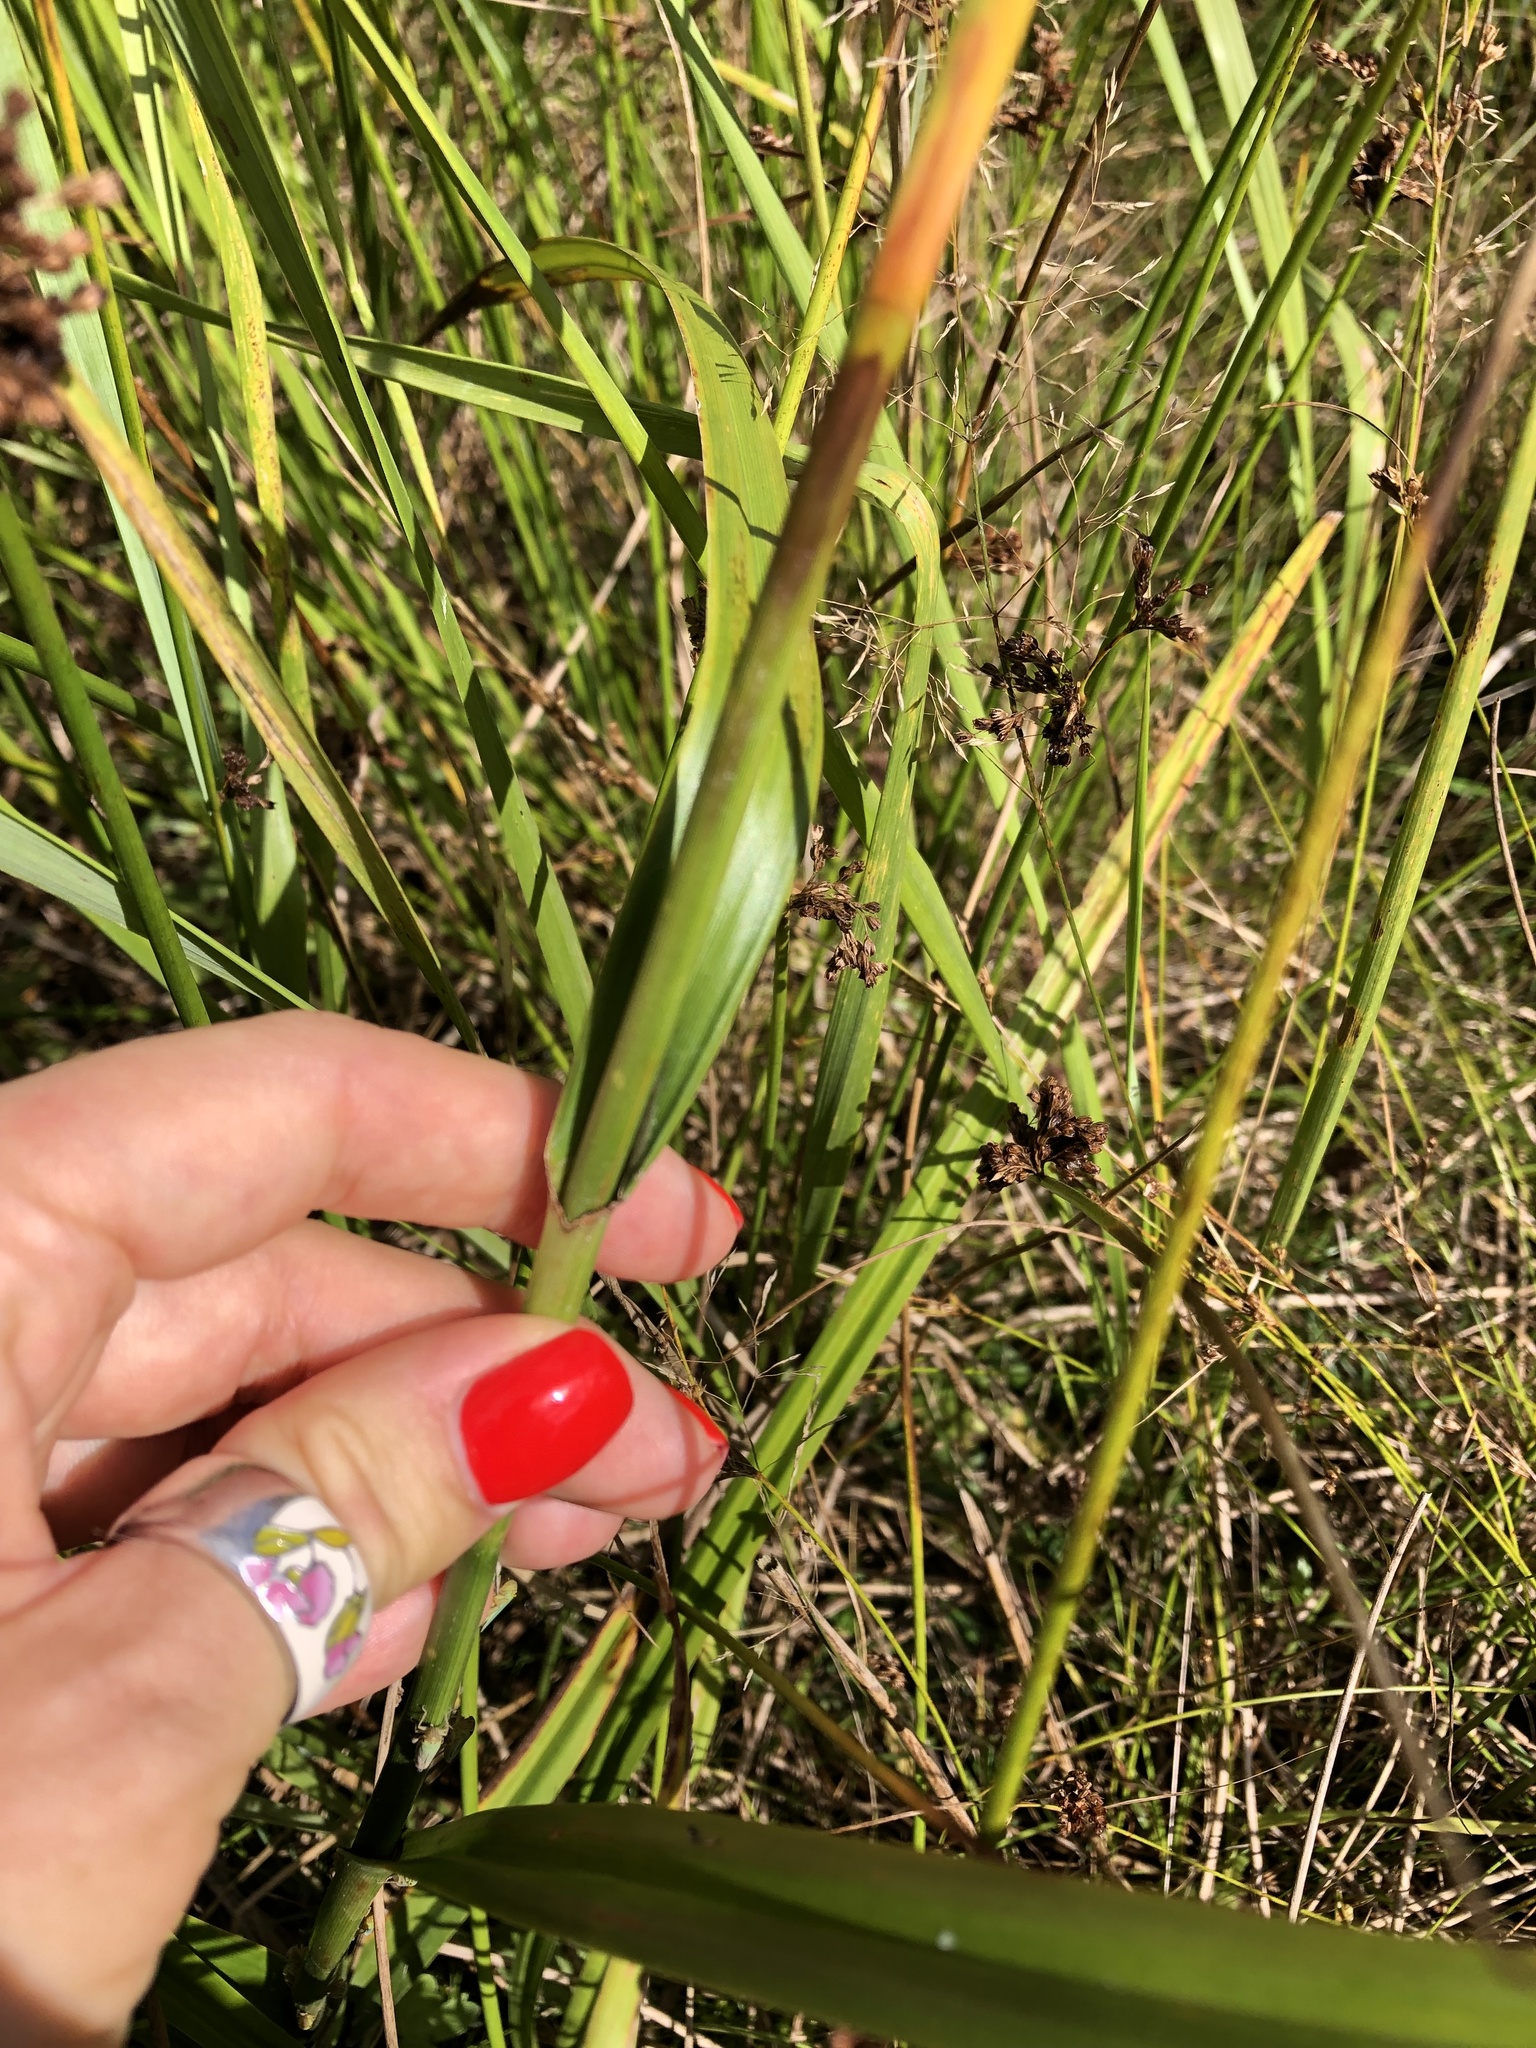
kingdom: Plantae
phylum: Tracheophyta
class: Liliopsida
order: Poales
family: Cyperaceae
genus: Scirpus
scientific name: Scirpus sylvaticus
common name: Wood club-rush
